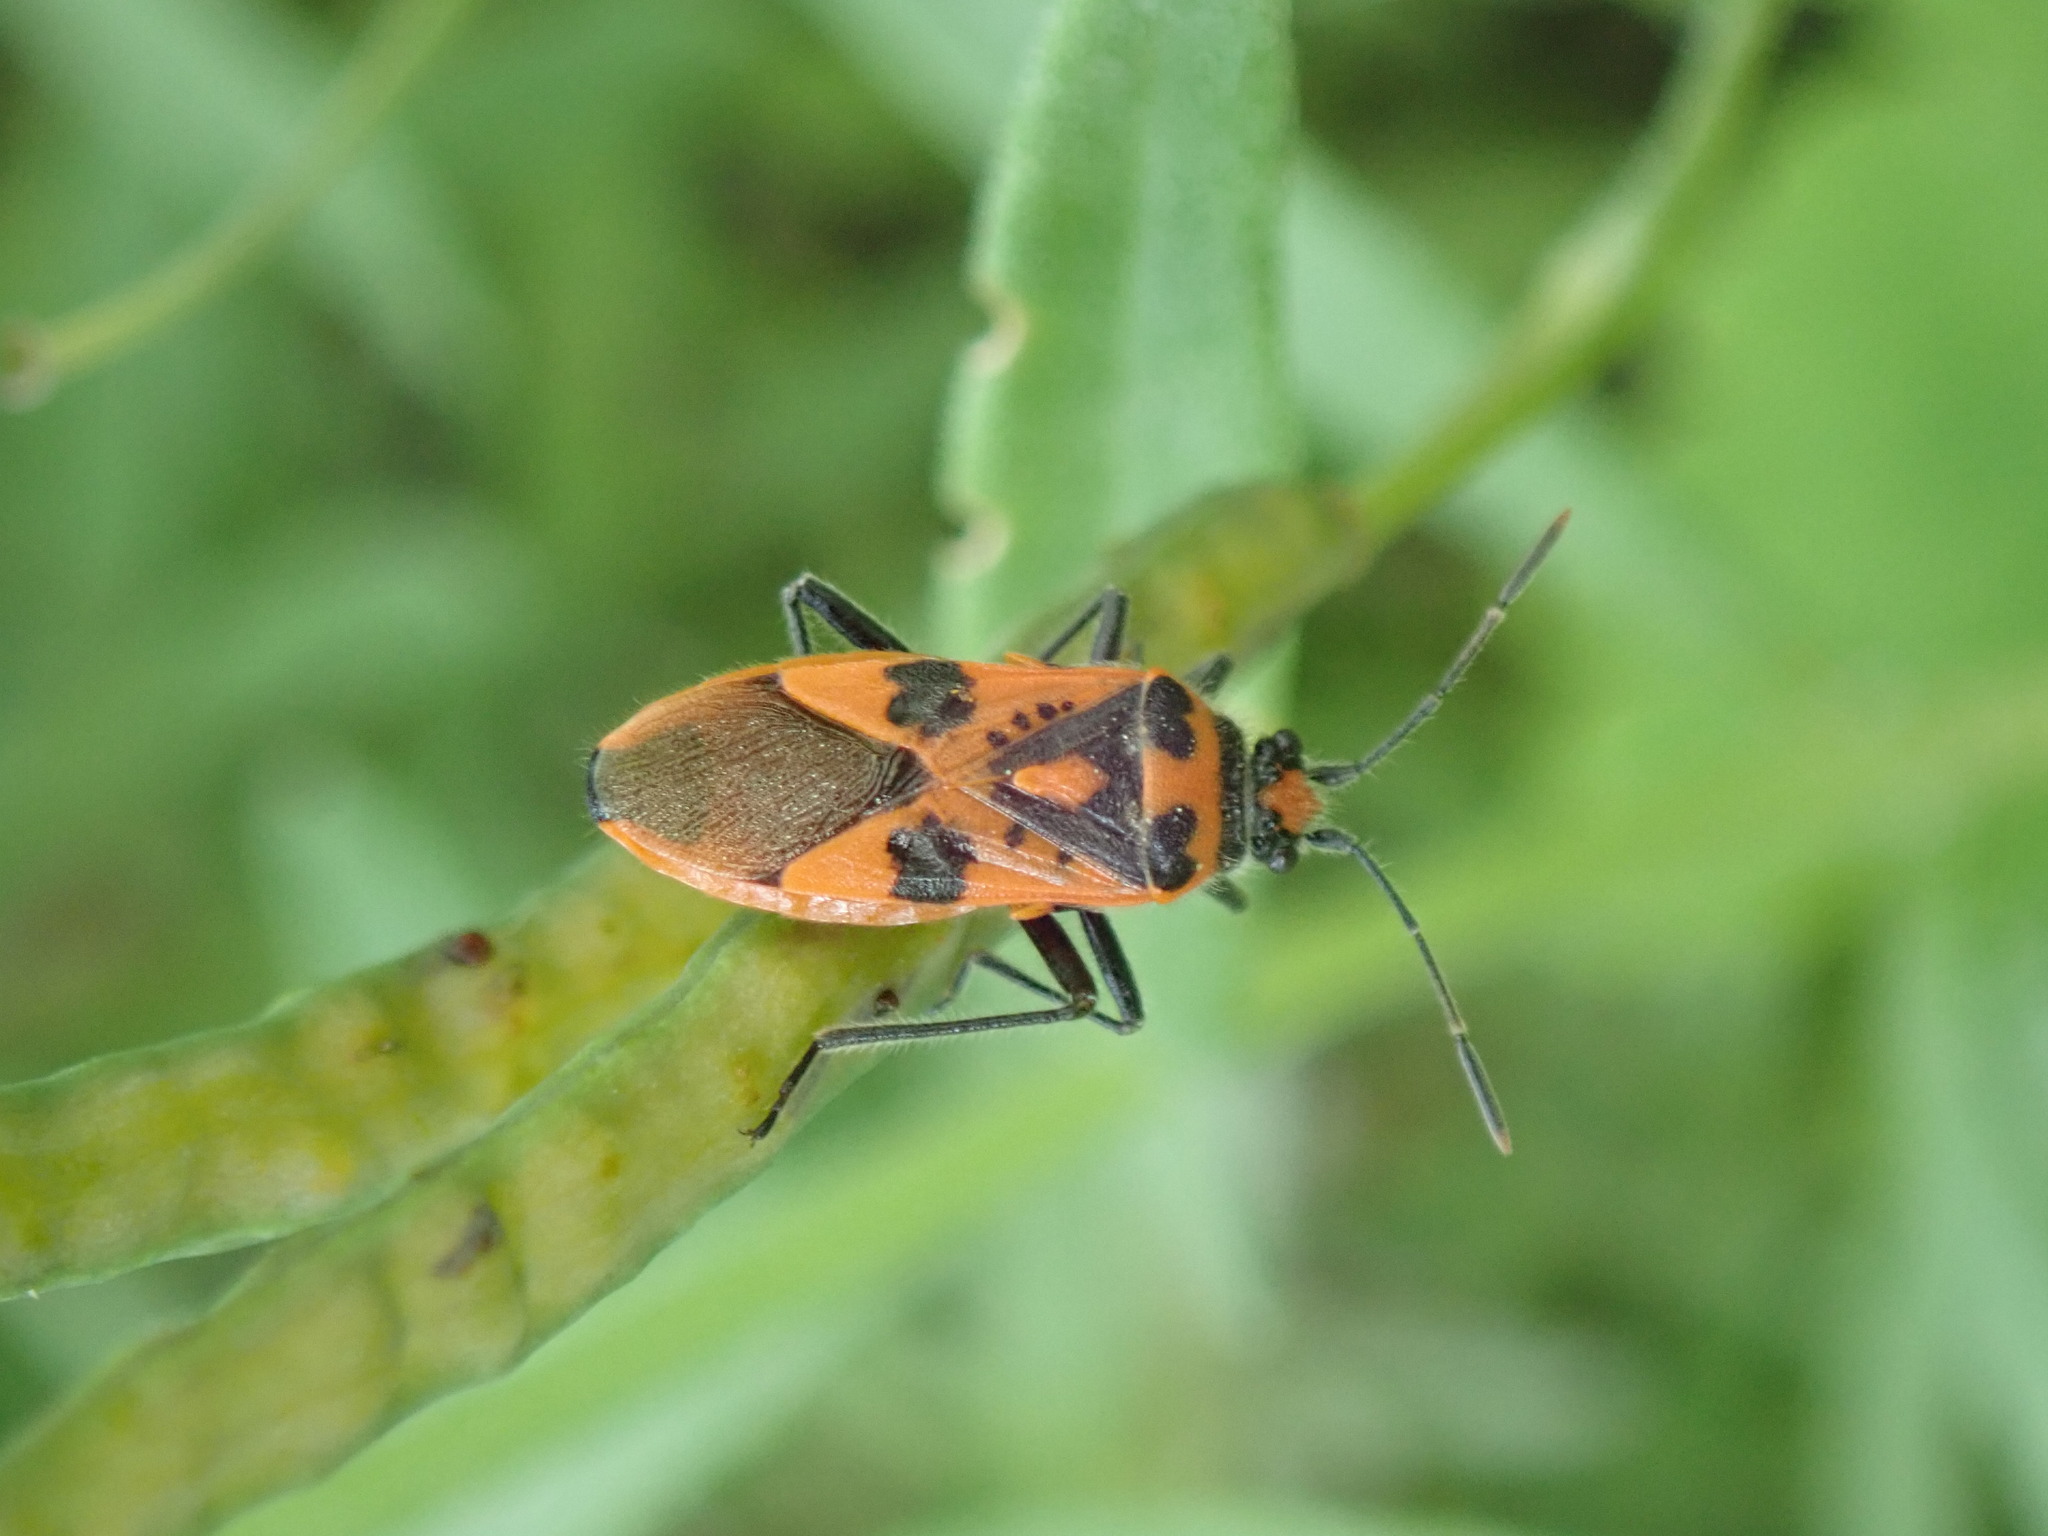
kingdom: Animalia
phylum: Arthropoda
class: Insecta
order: Hemiptera
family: Rhopalidae
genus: Corizus
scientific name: Corizus hyoscyami
